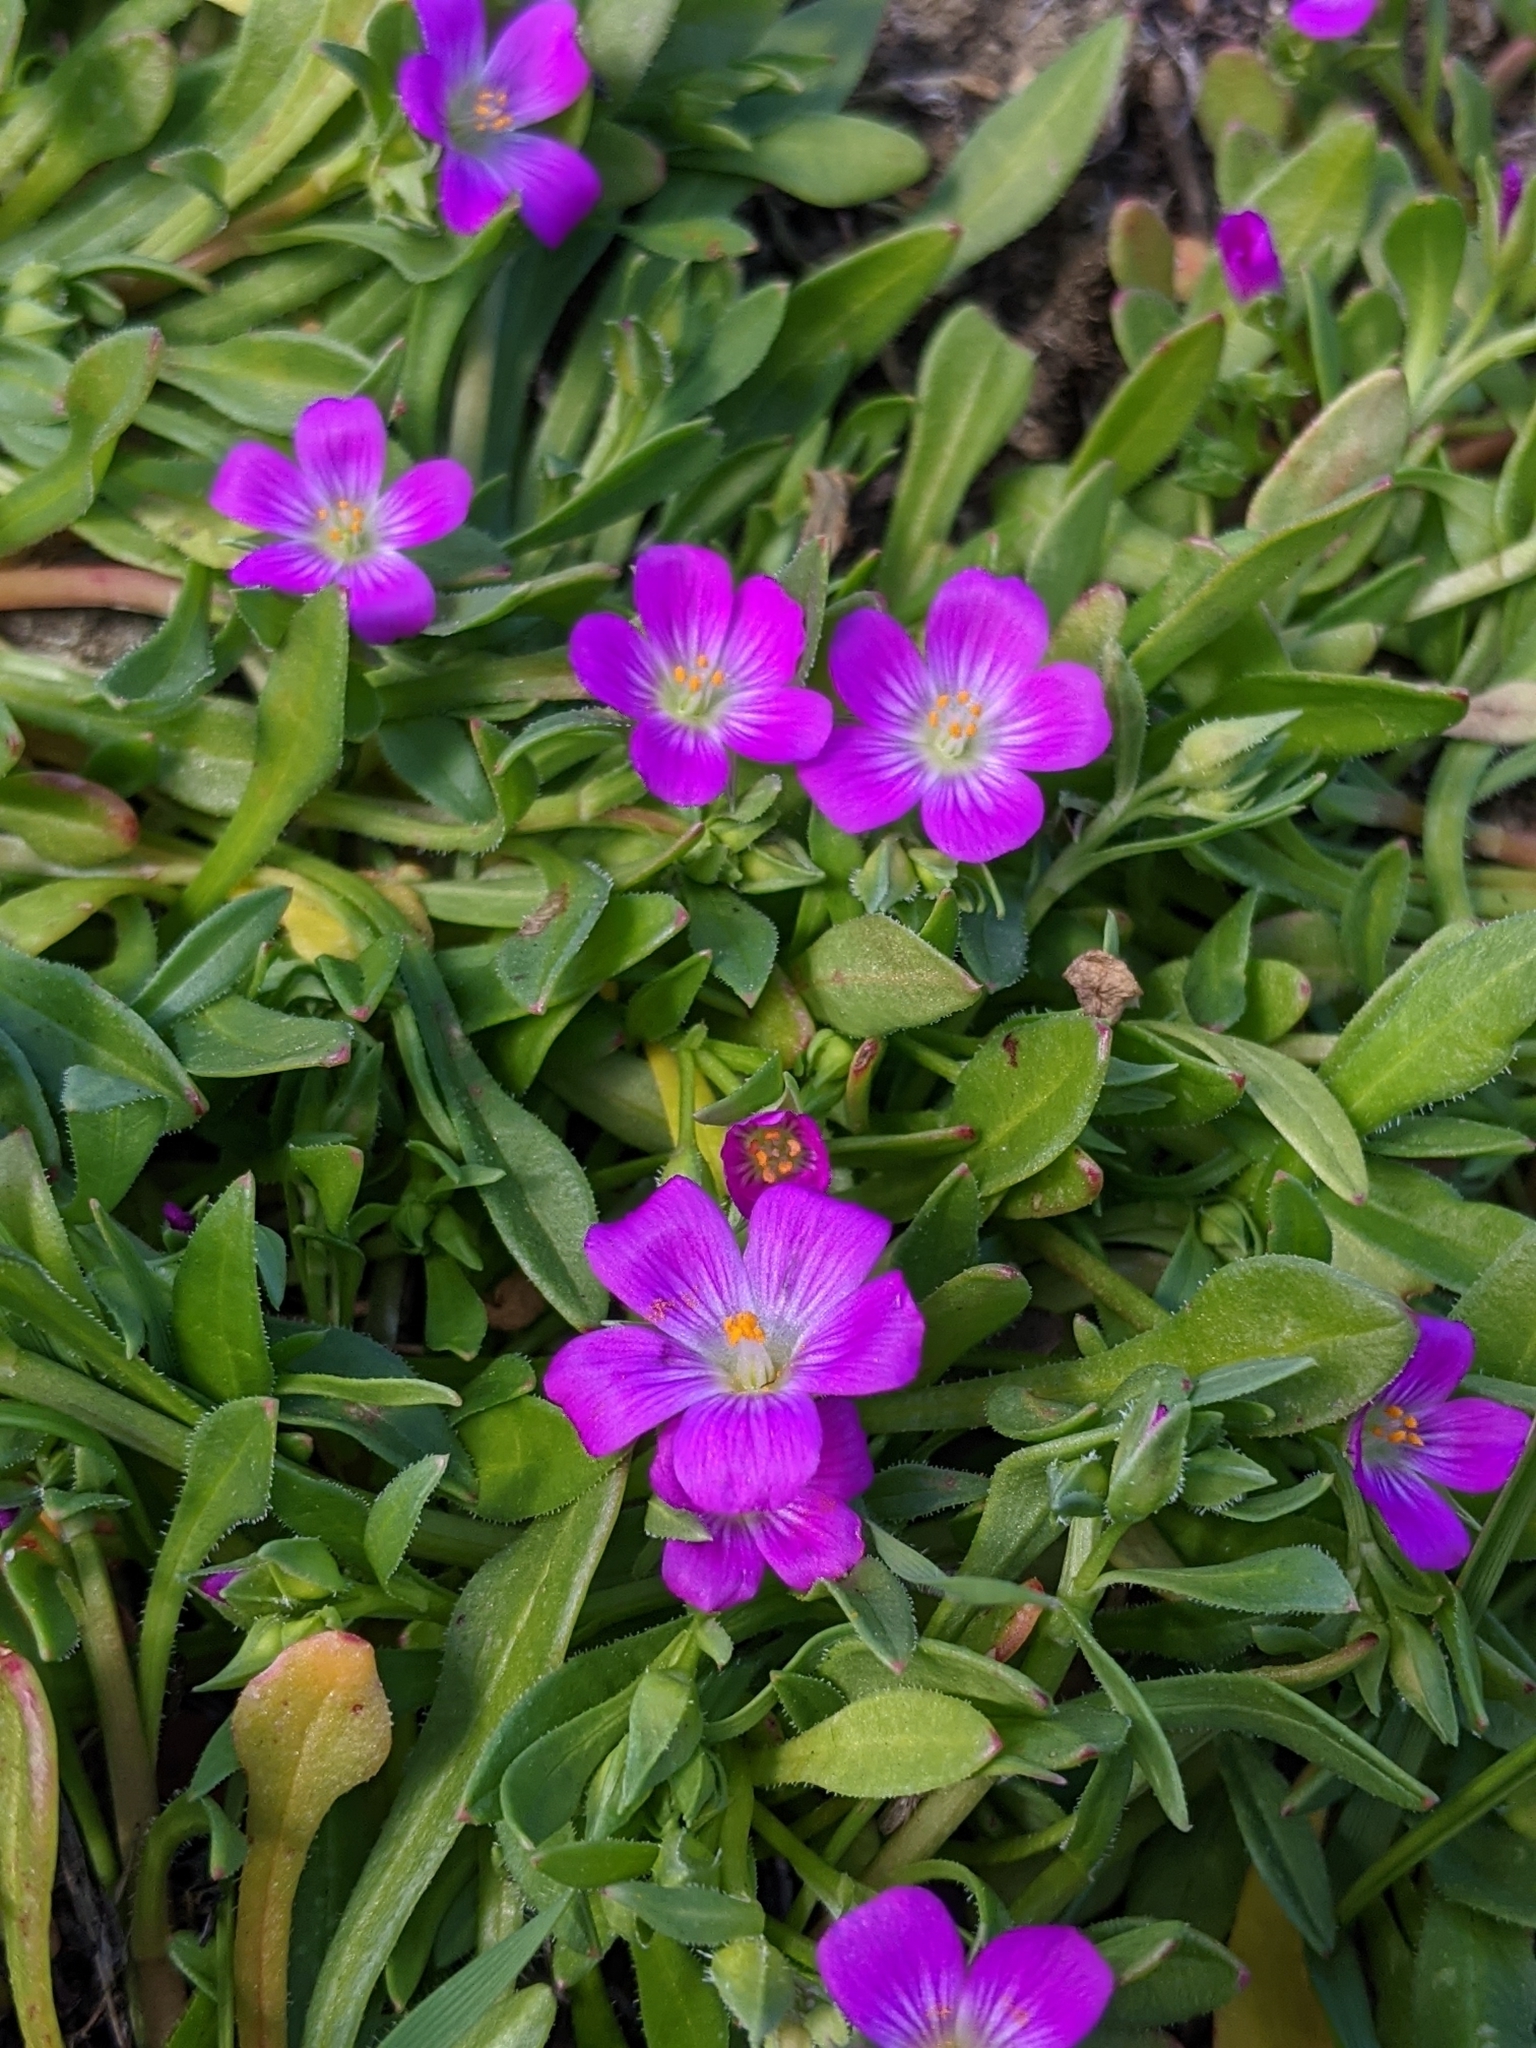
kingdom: Plantae
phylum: Tracheophyta
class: Magnoliopsida
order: Caryophyllales
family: Montiaceae
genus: Calandrinia
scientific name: Calandrinia menziesii
